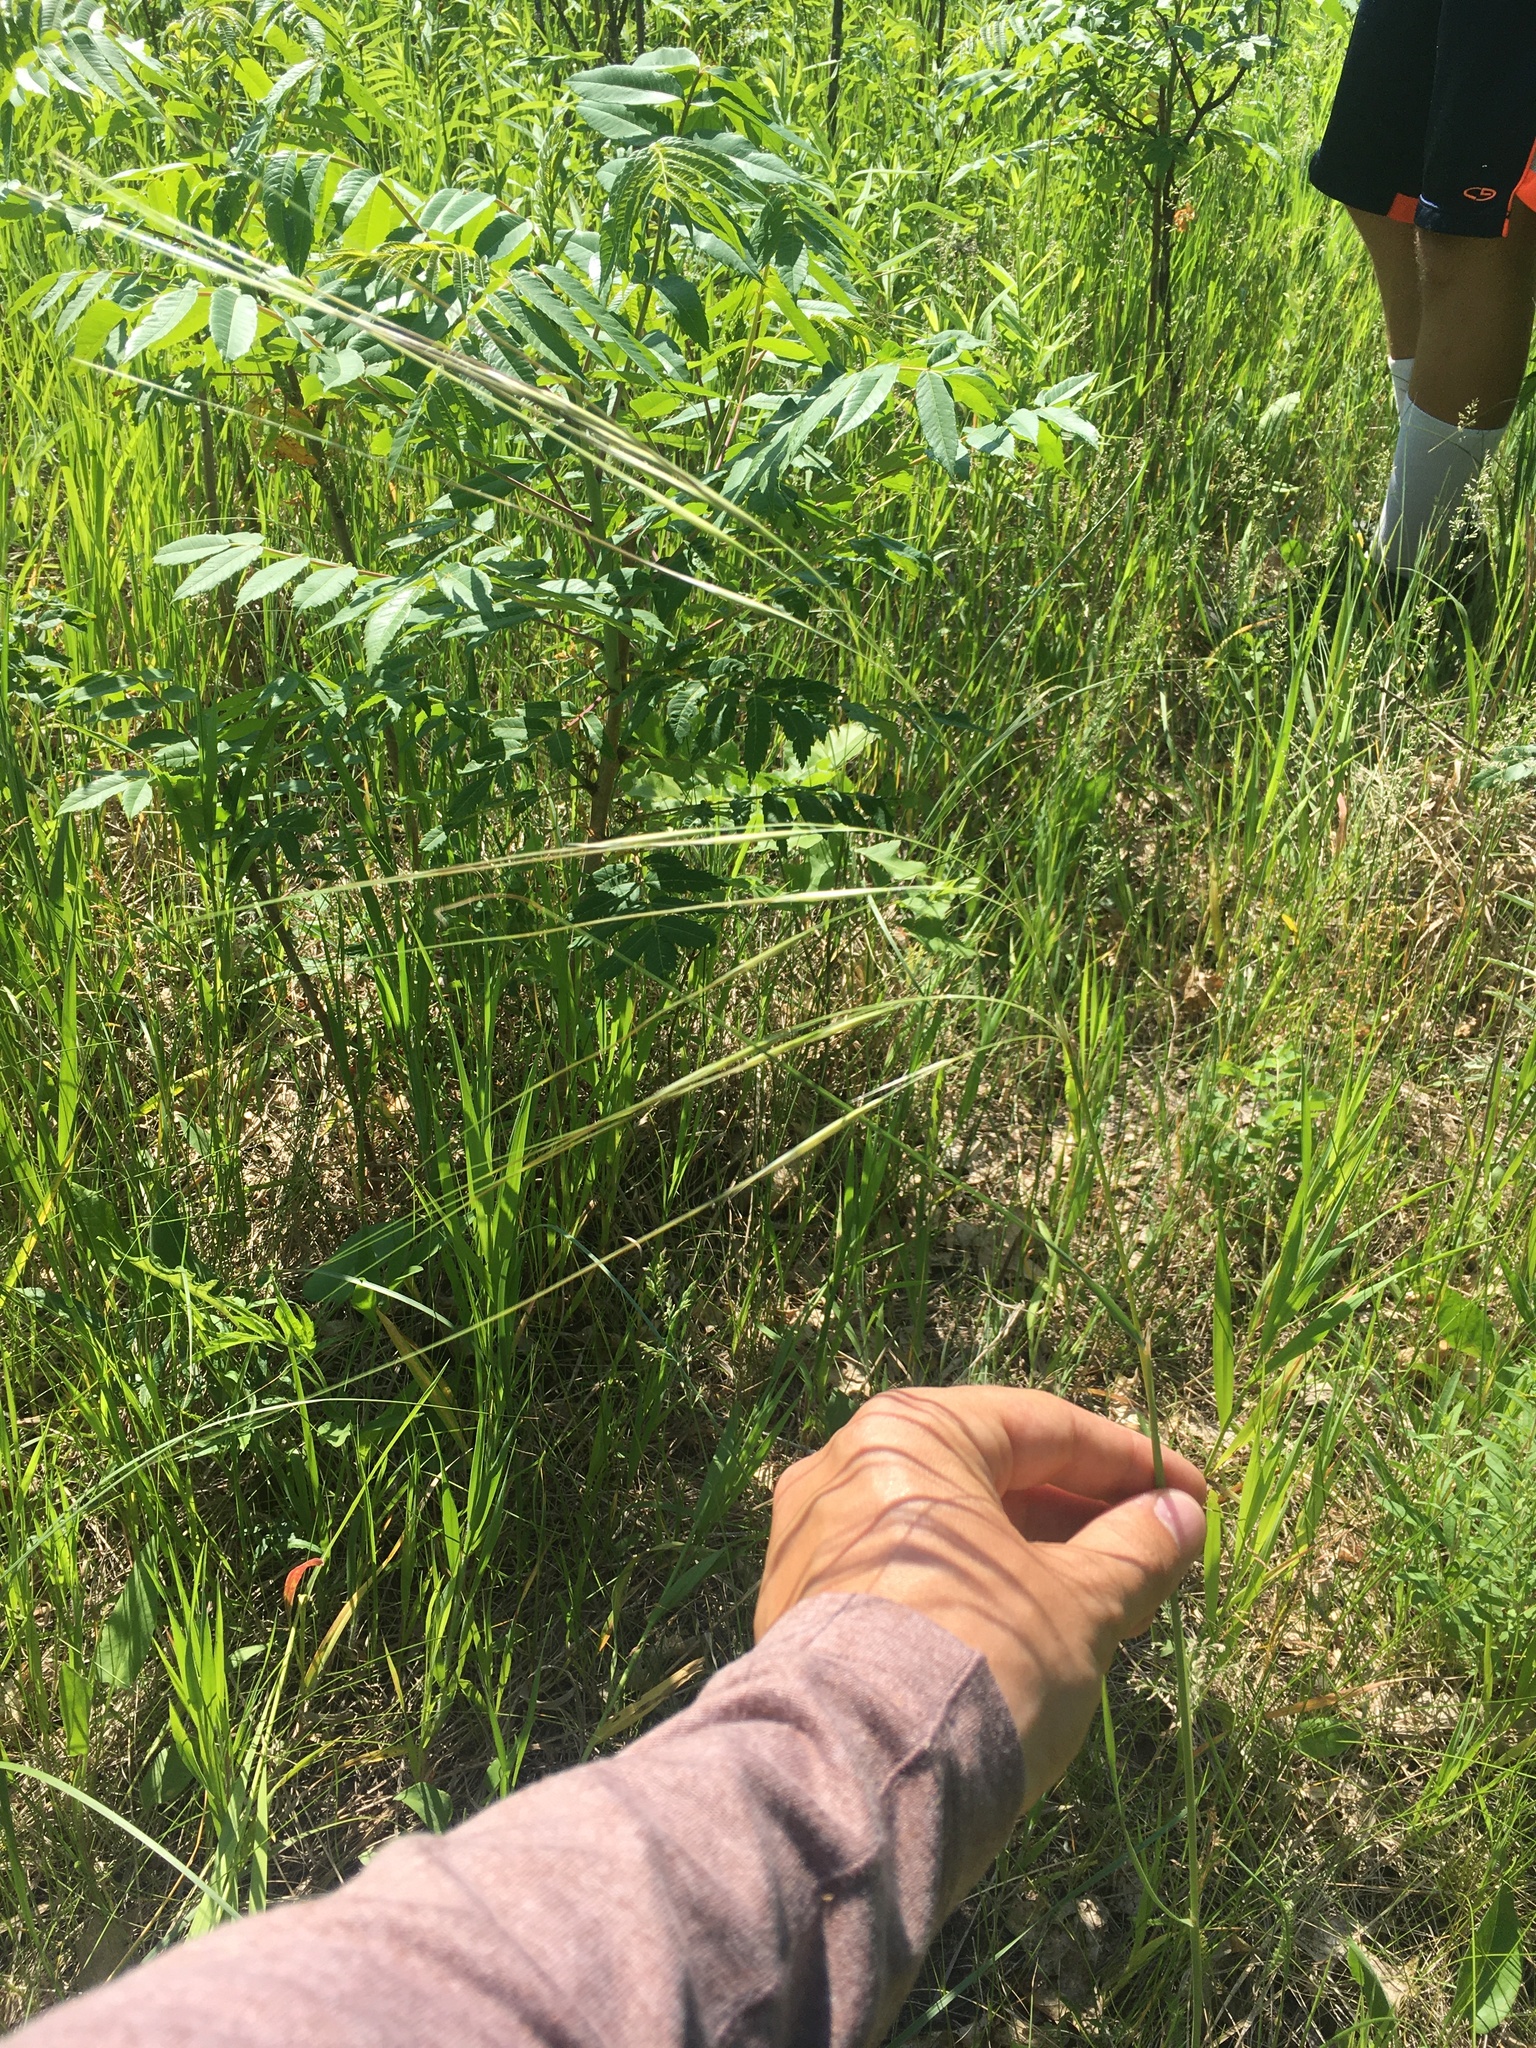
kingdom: Plantae
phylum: Tracheophyta
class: Liliopsida
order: Poales
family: Poaceae
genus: Hesperostipa
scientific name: Hesperostipa spartea
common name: Porcupine grass
